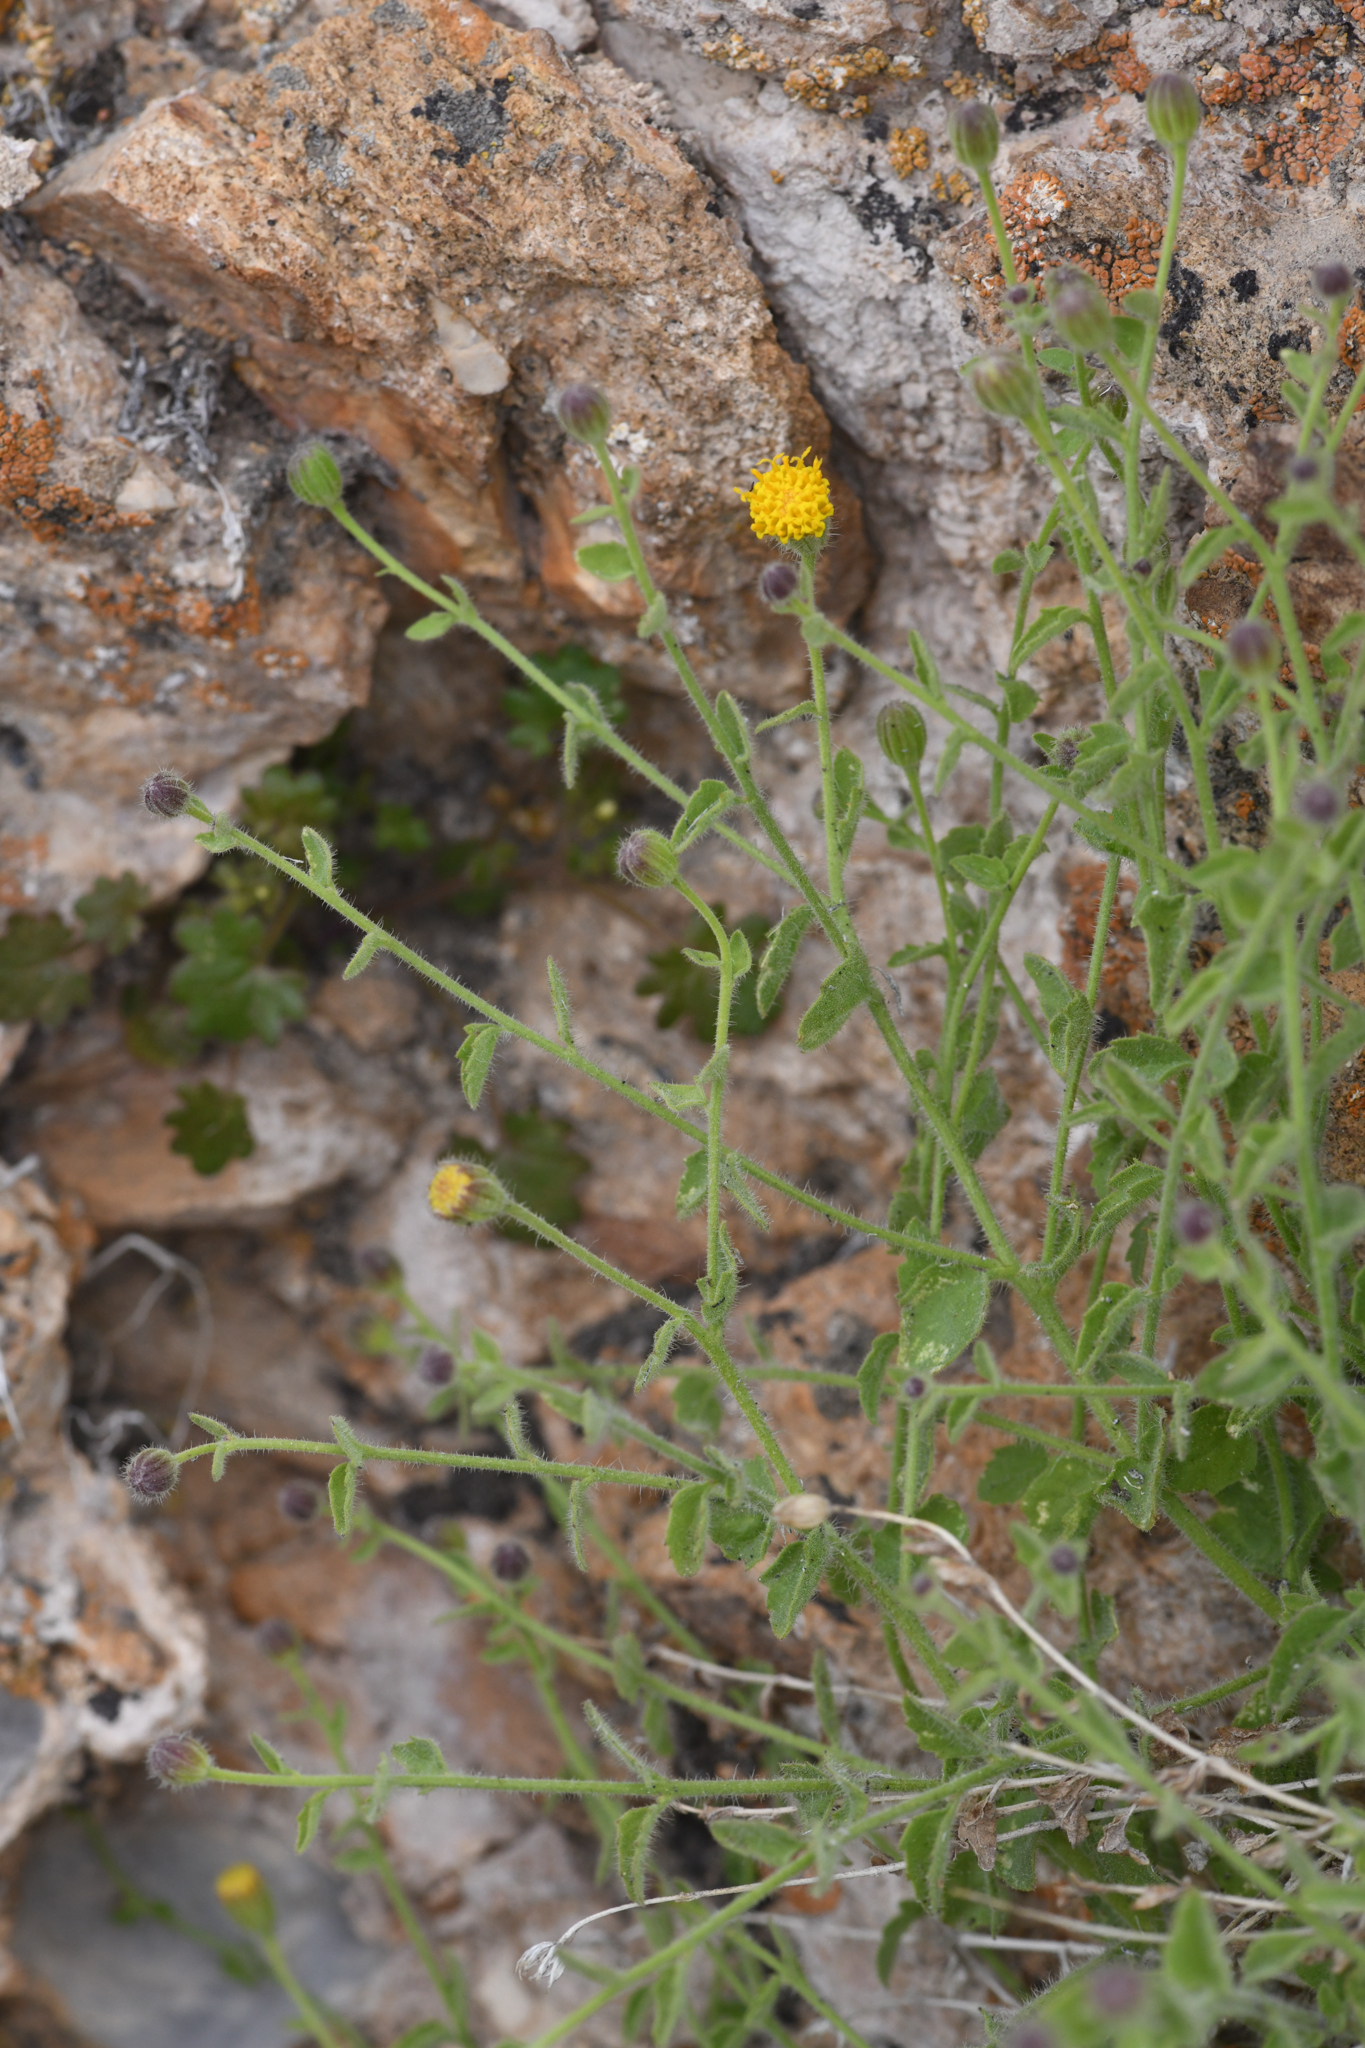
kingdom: Plantae
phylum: Tracheophyta
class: Magnoliopsida
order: Asterales
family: Asteraceae
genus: Laphamia
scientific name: Laphamia inyoensis
